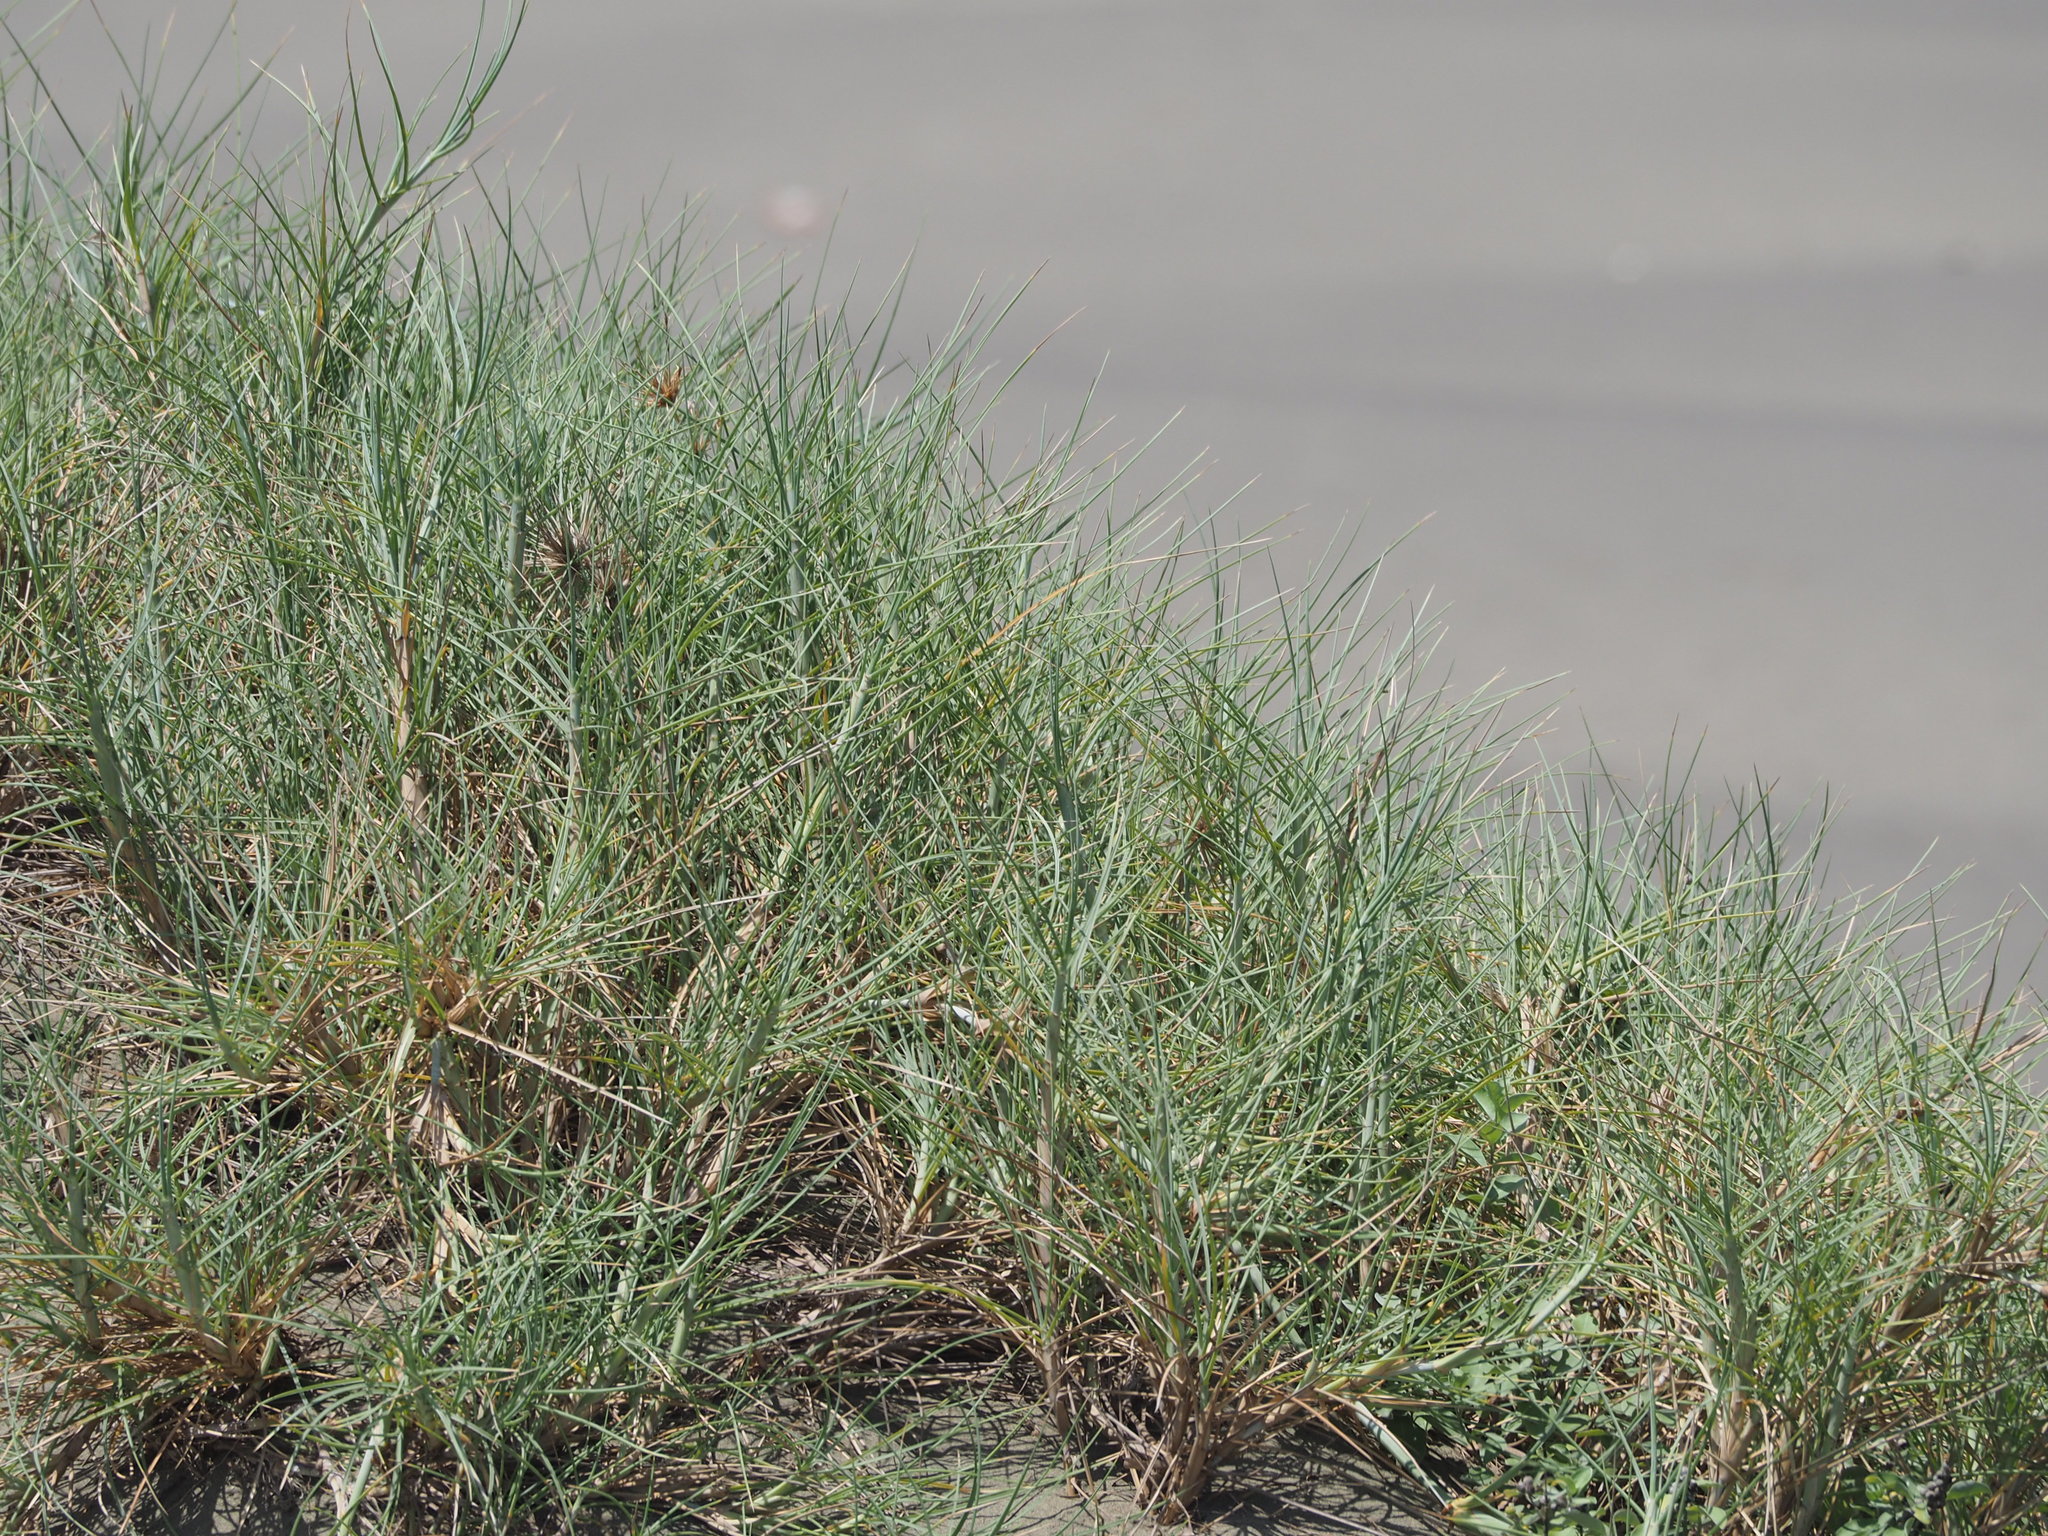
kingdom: Plantae
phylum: Tracheophyta
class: Liliopsida
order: Poales
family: Poaceae
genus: Spinifex
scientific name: Spinifex littoreus
